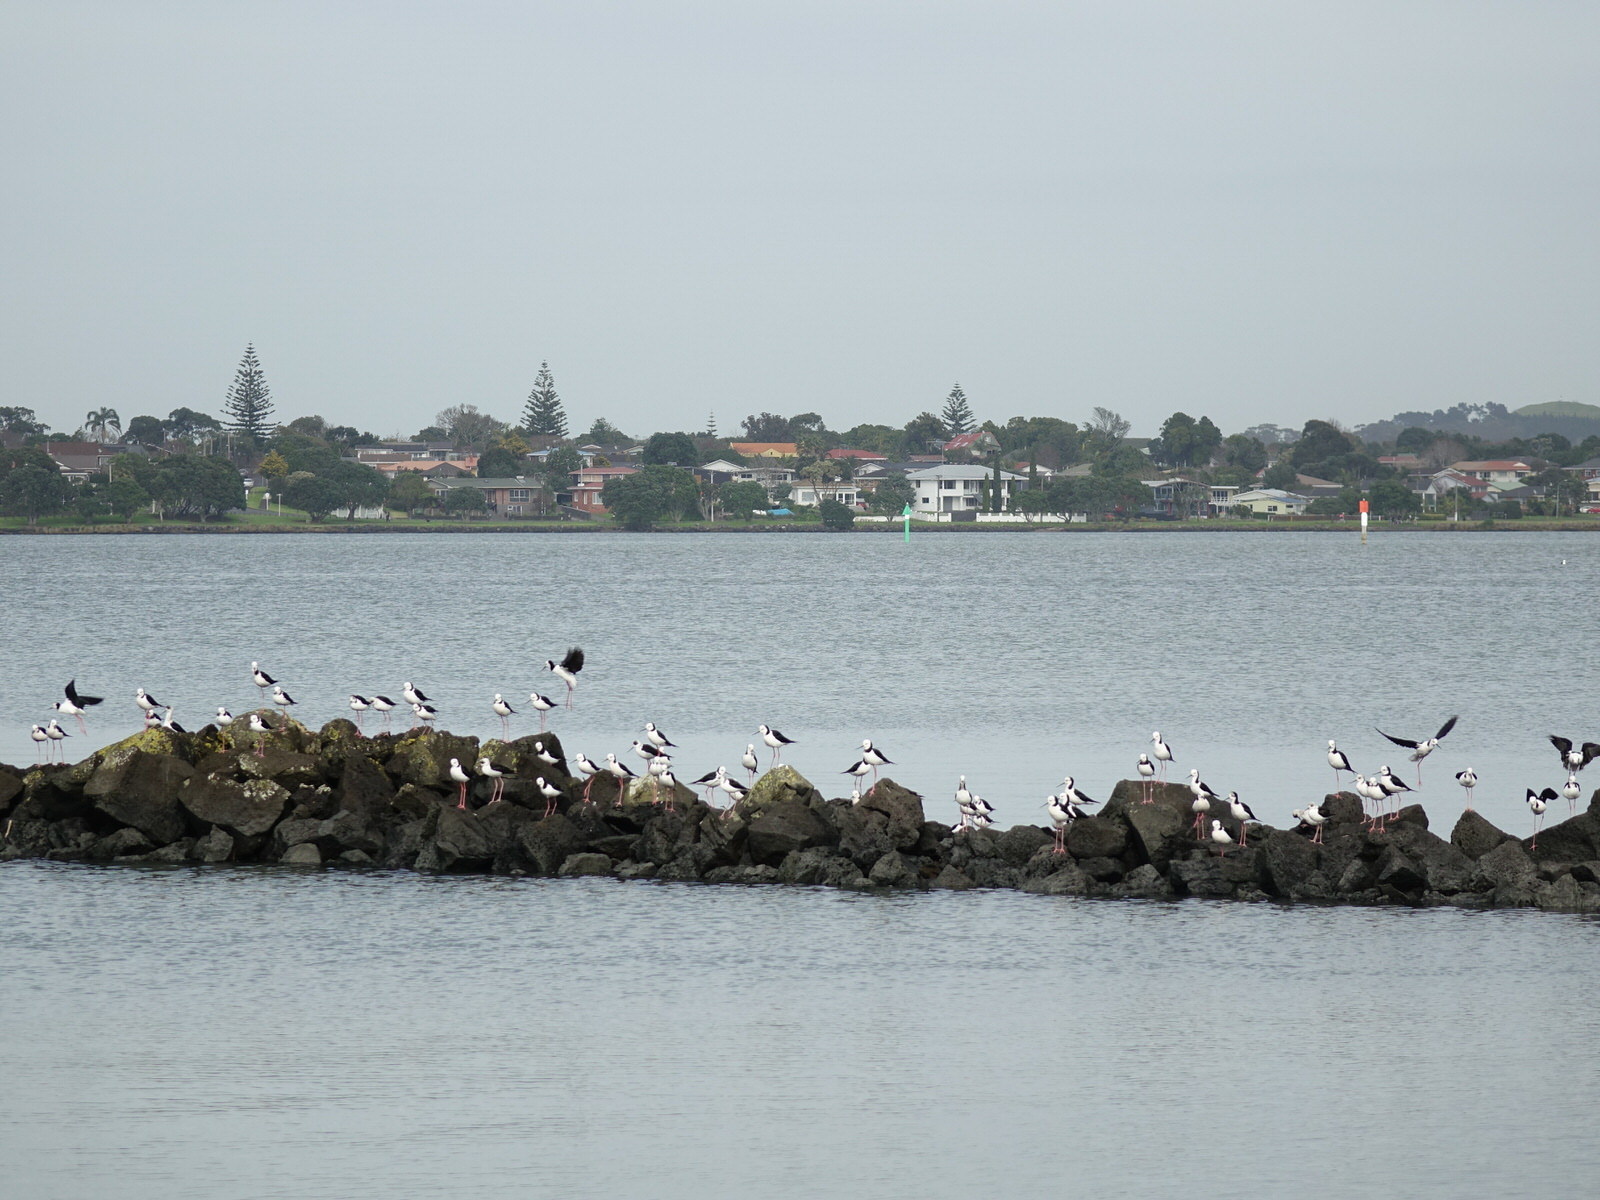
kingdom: Animalia
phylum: Chordata
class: Aves
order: Charadriiformes
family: Recurvirostridae
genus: Himantopus
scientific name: Himantopus leucocephalus
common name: White-headed stilt
